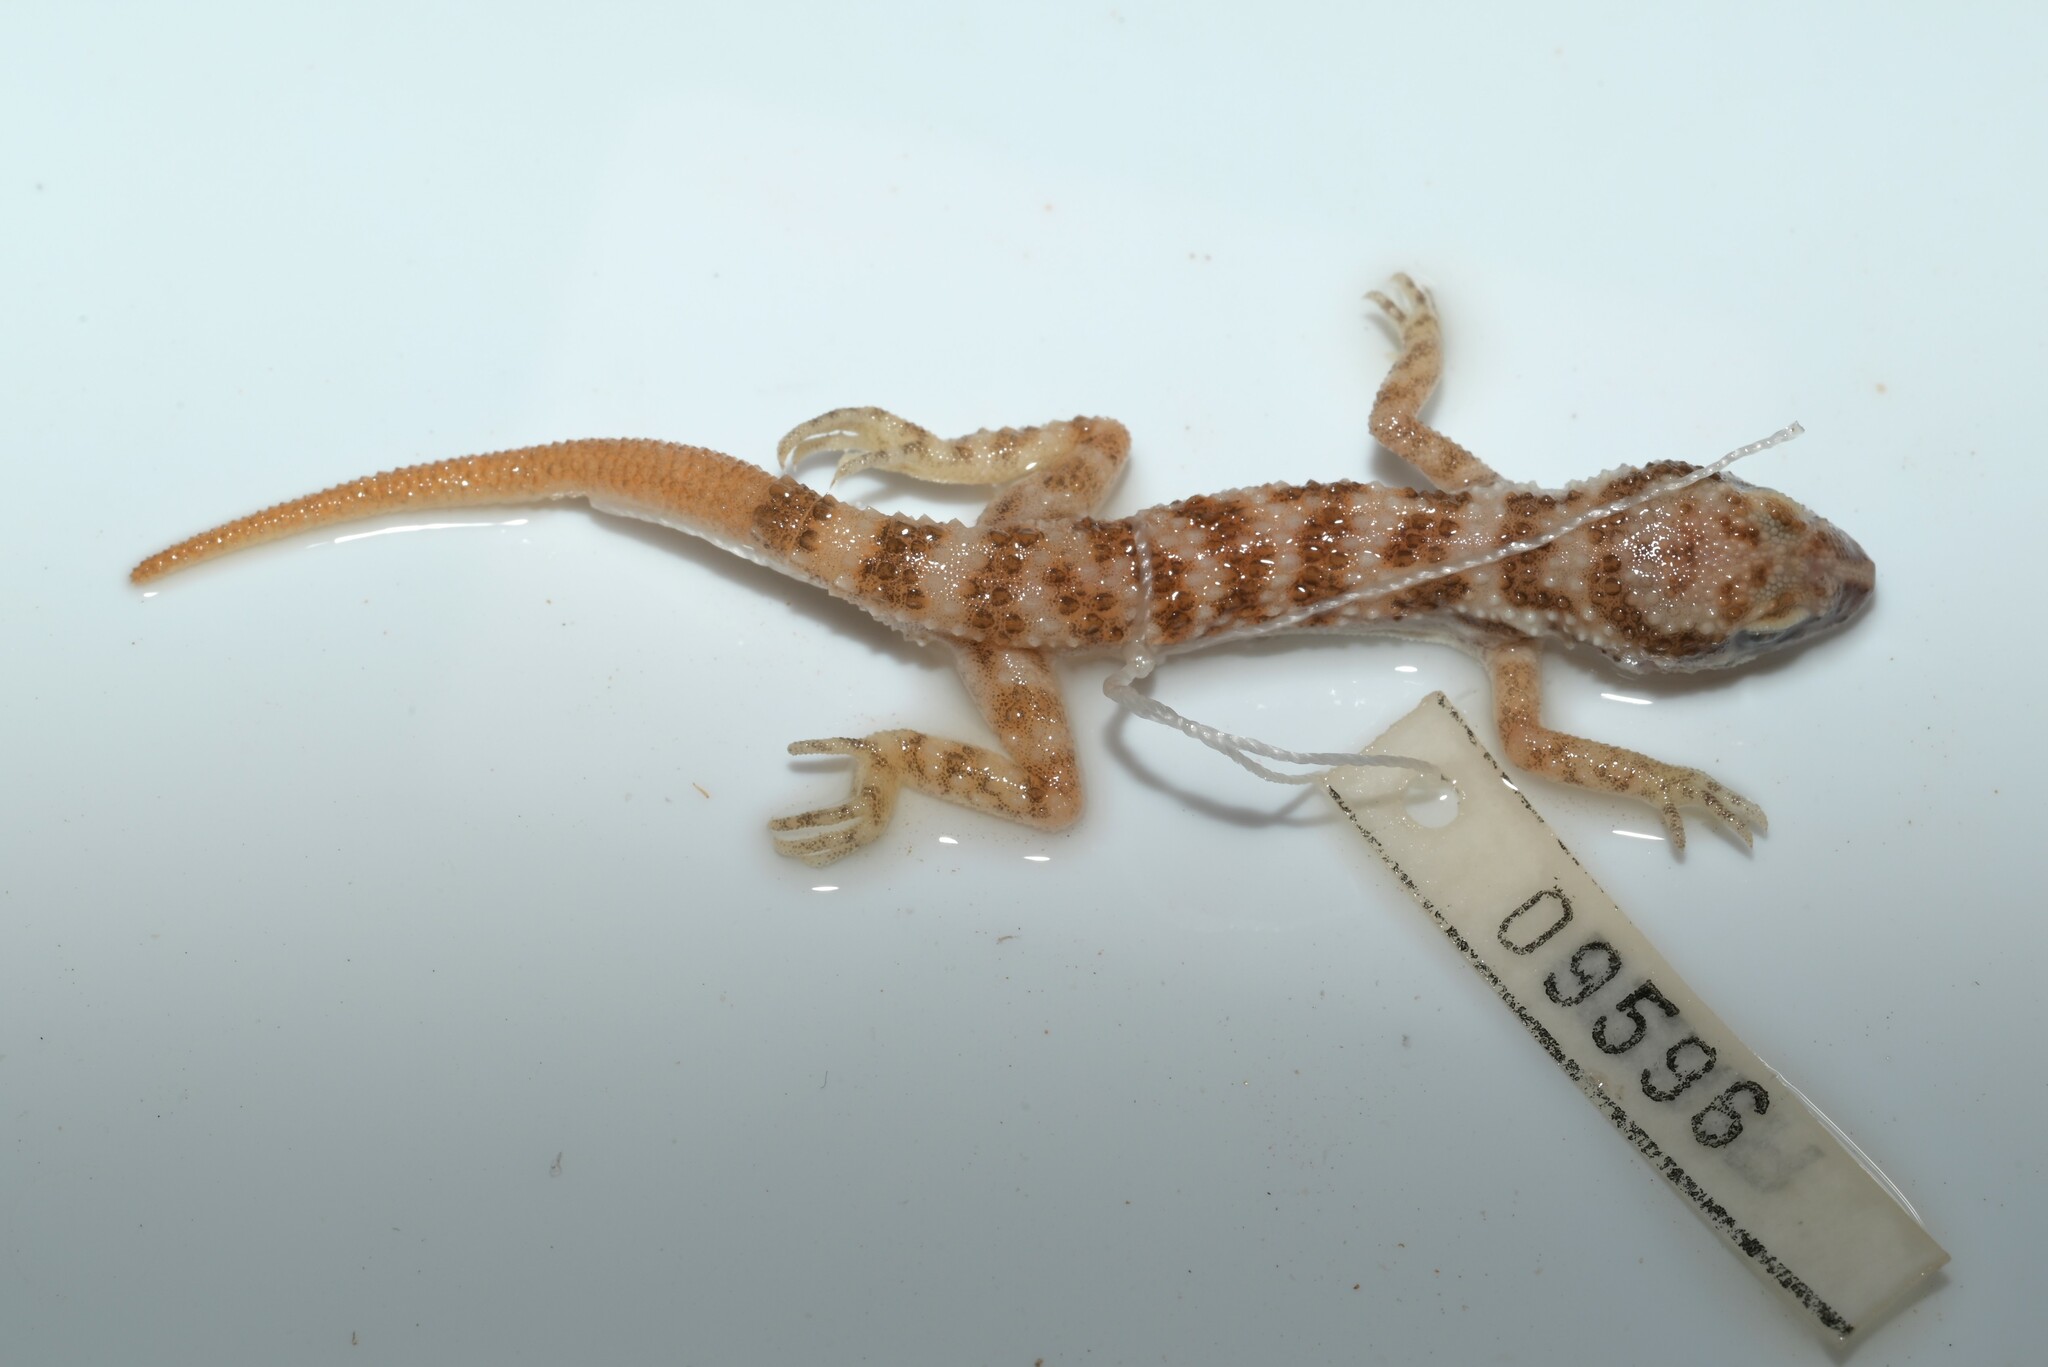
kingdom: Animalia
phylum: Chordata
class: Squamata
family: Gekkonidae
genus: Bunopus
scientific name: Bunopus tuberculatus
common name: Southern tuberculated gecko
